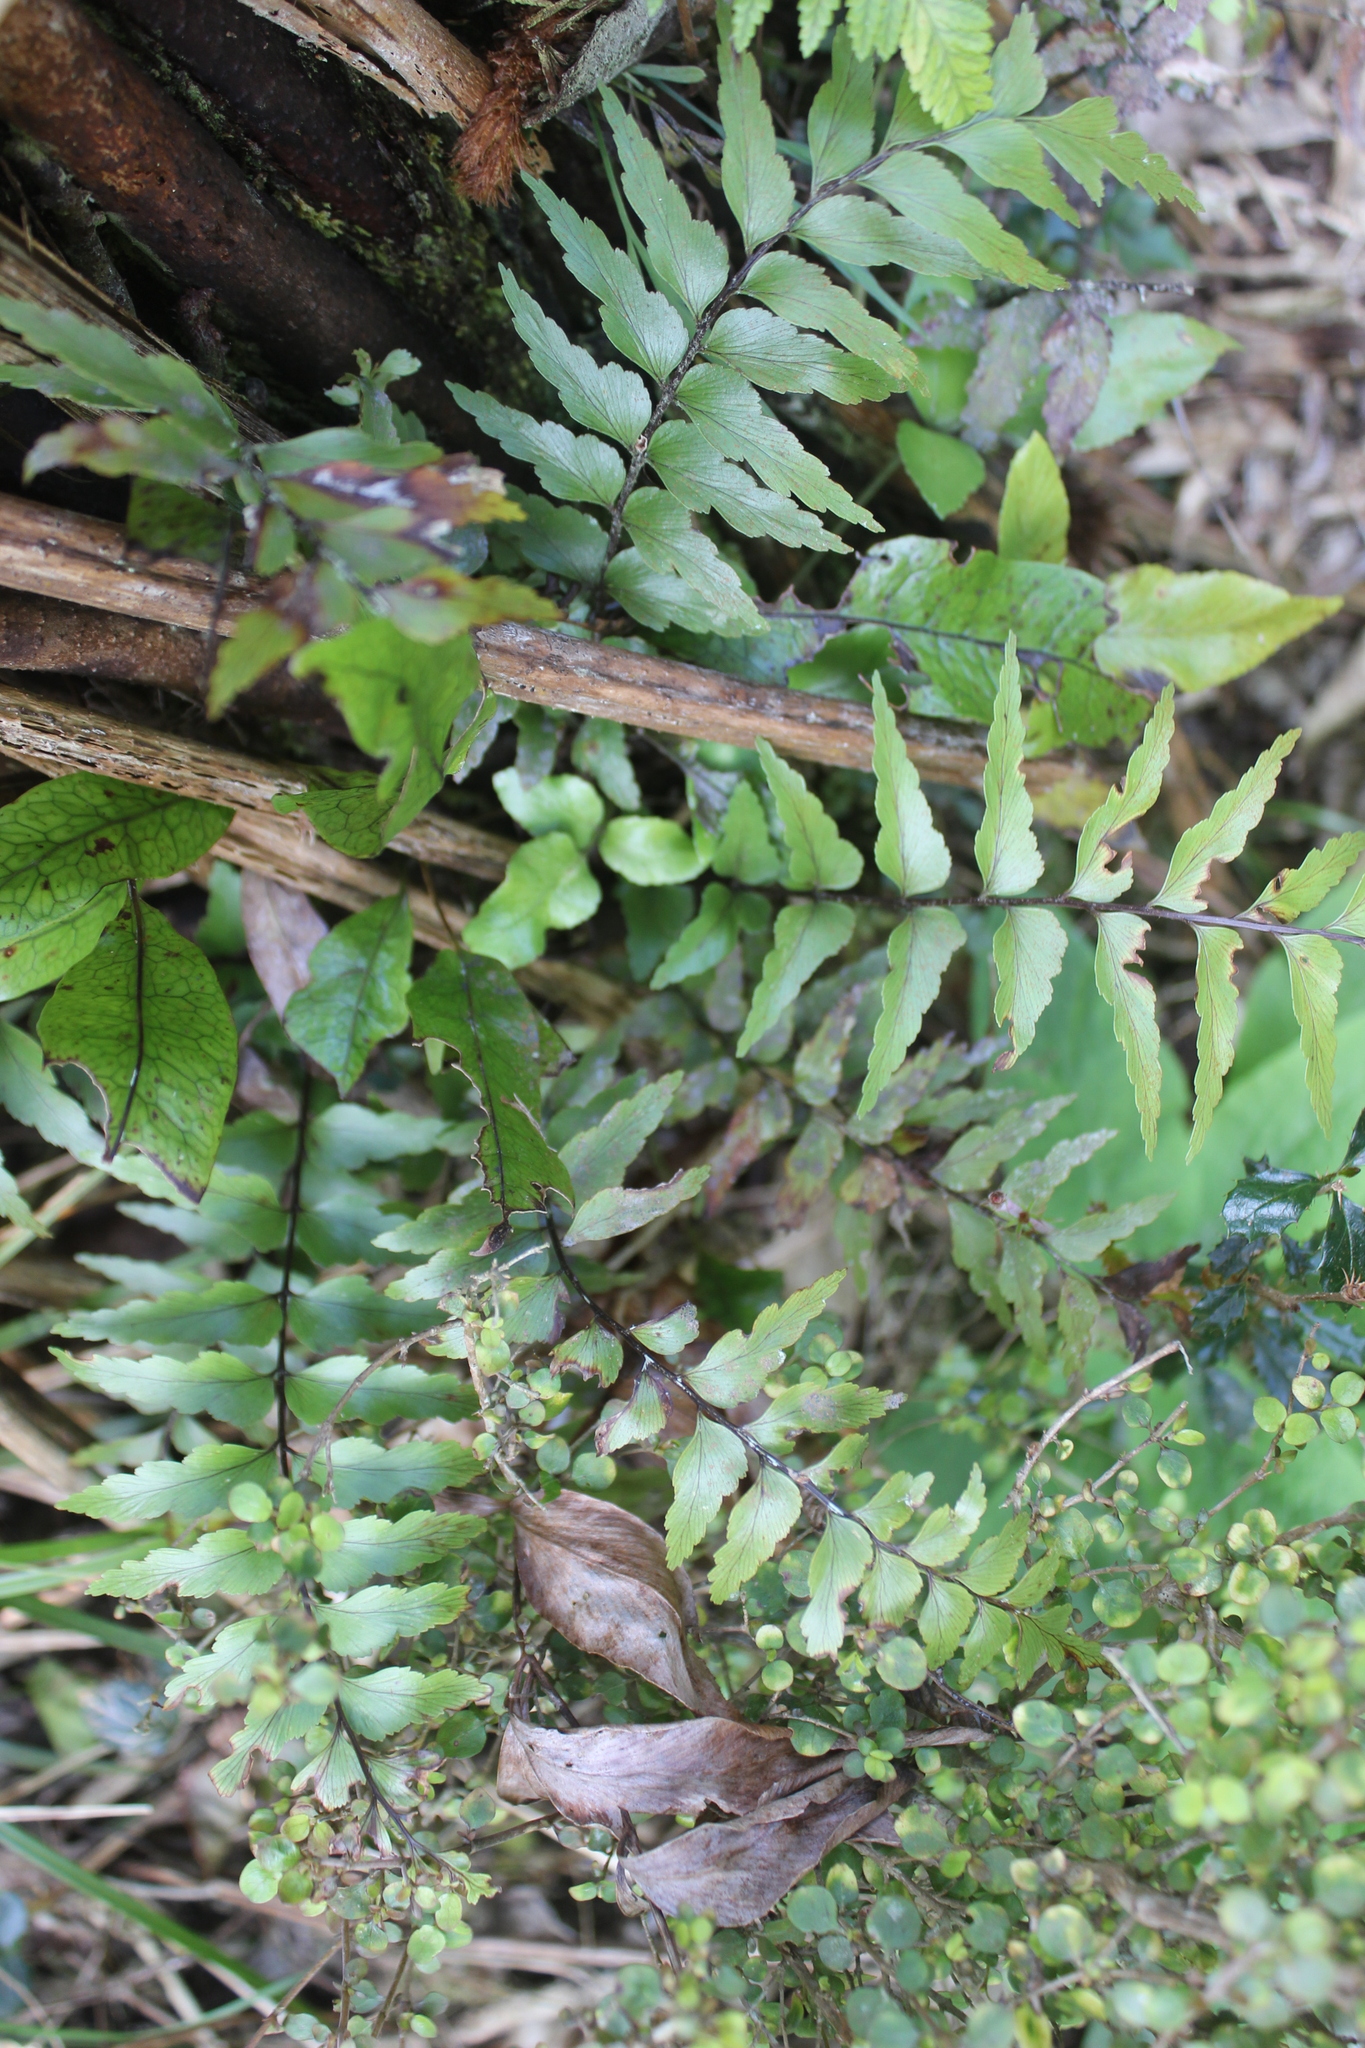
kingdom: Plantae
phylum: Tracheophyta
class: Polypodiopsida
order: Polypodiales
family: Aspleniaceae
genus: Asplenium
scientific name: Asplenium polyodon
